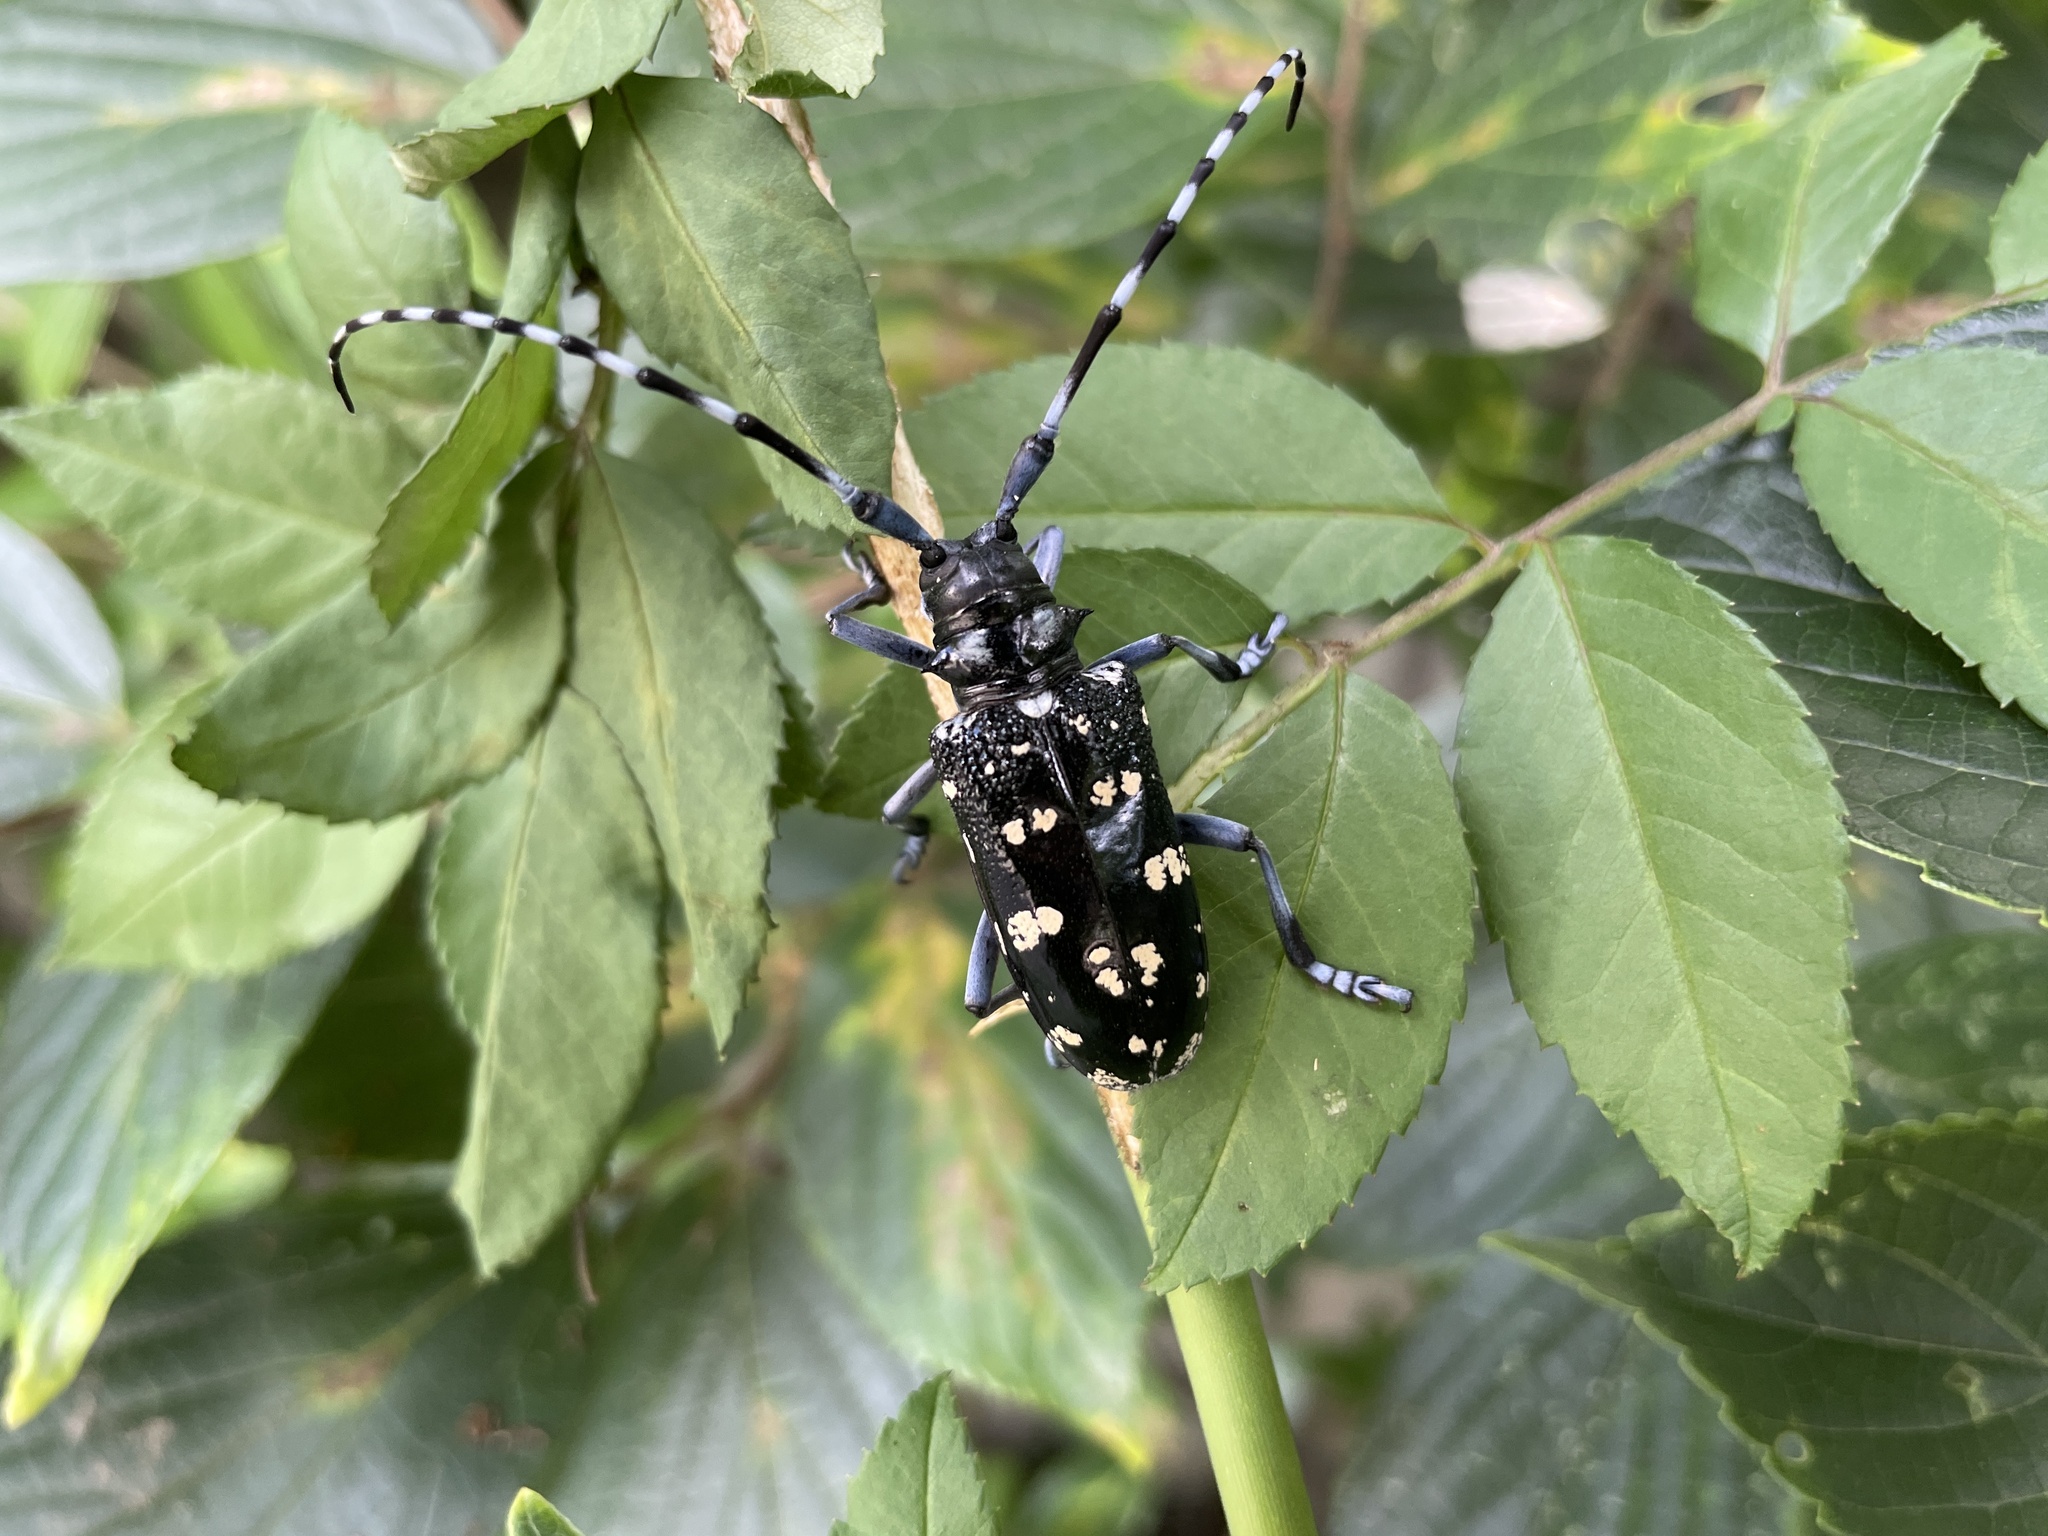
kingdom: Animalia
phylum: Arthropoda
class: Insecta
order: Coleoptera
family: Cerambycidae
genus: Anoplophora
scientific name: Anoplophora chinensis
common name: Citrus longhorned beetle
